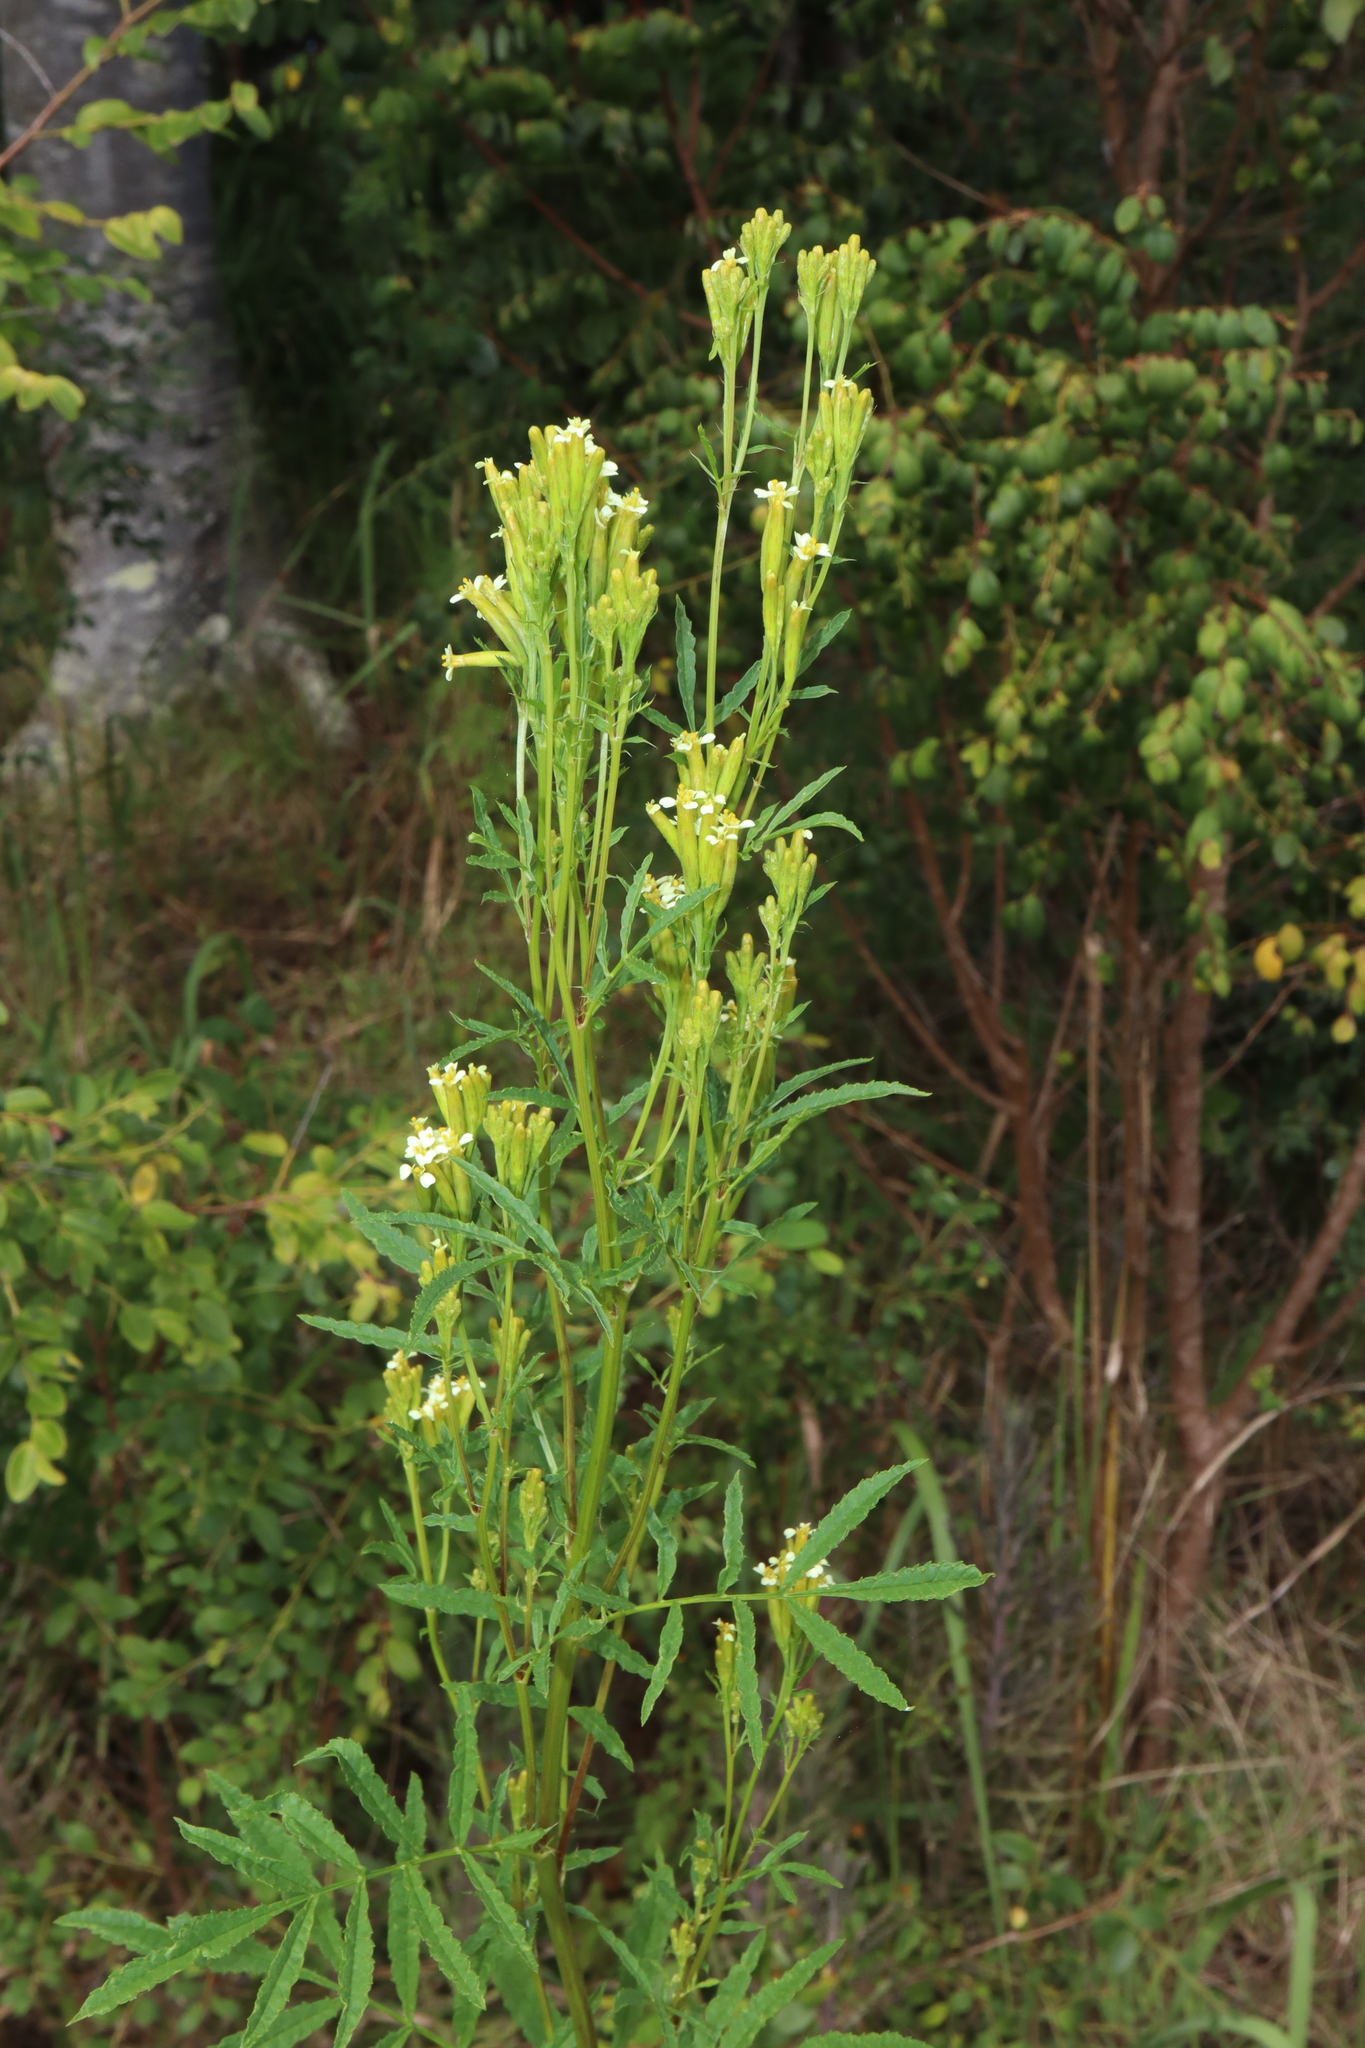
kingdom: Plantae
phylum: Tracheophyta
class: Magnoliopsida
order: Asterales
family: Asteraceae
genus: Tagetes
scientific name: Tagetes minuta
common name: Muster john henry
